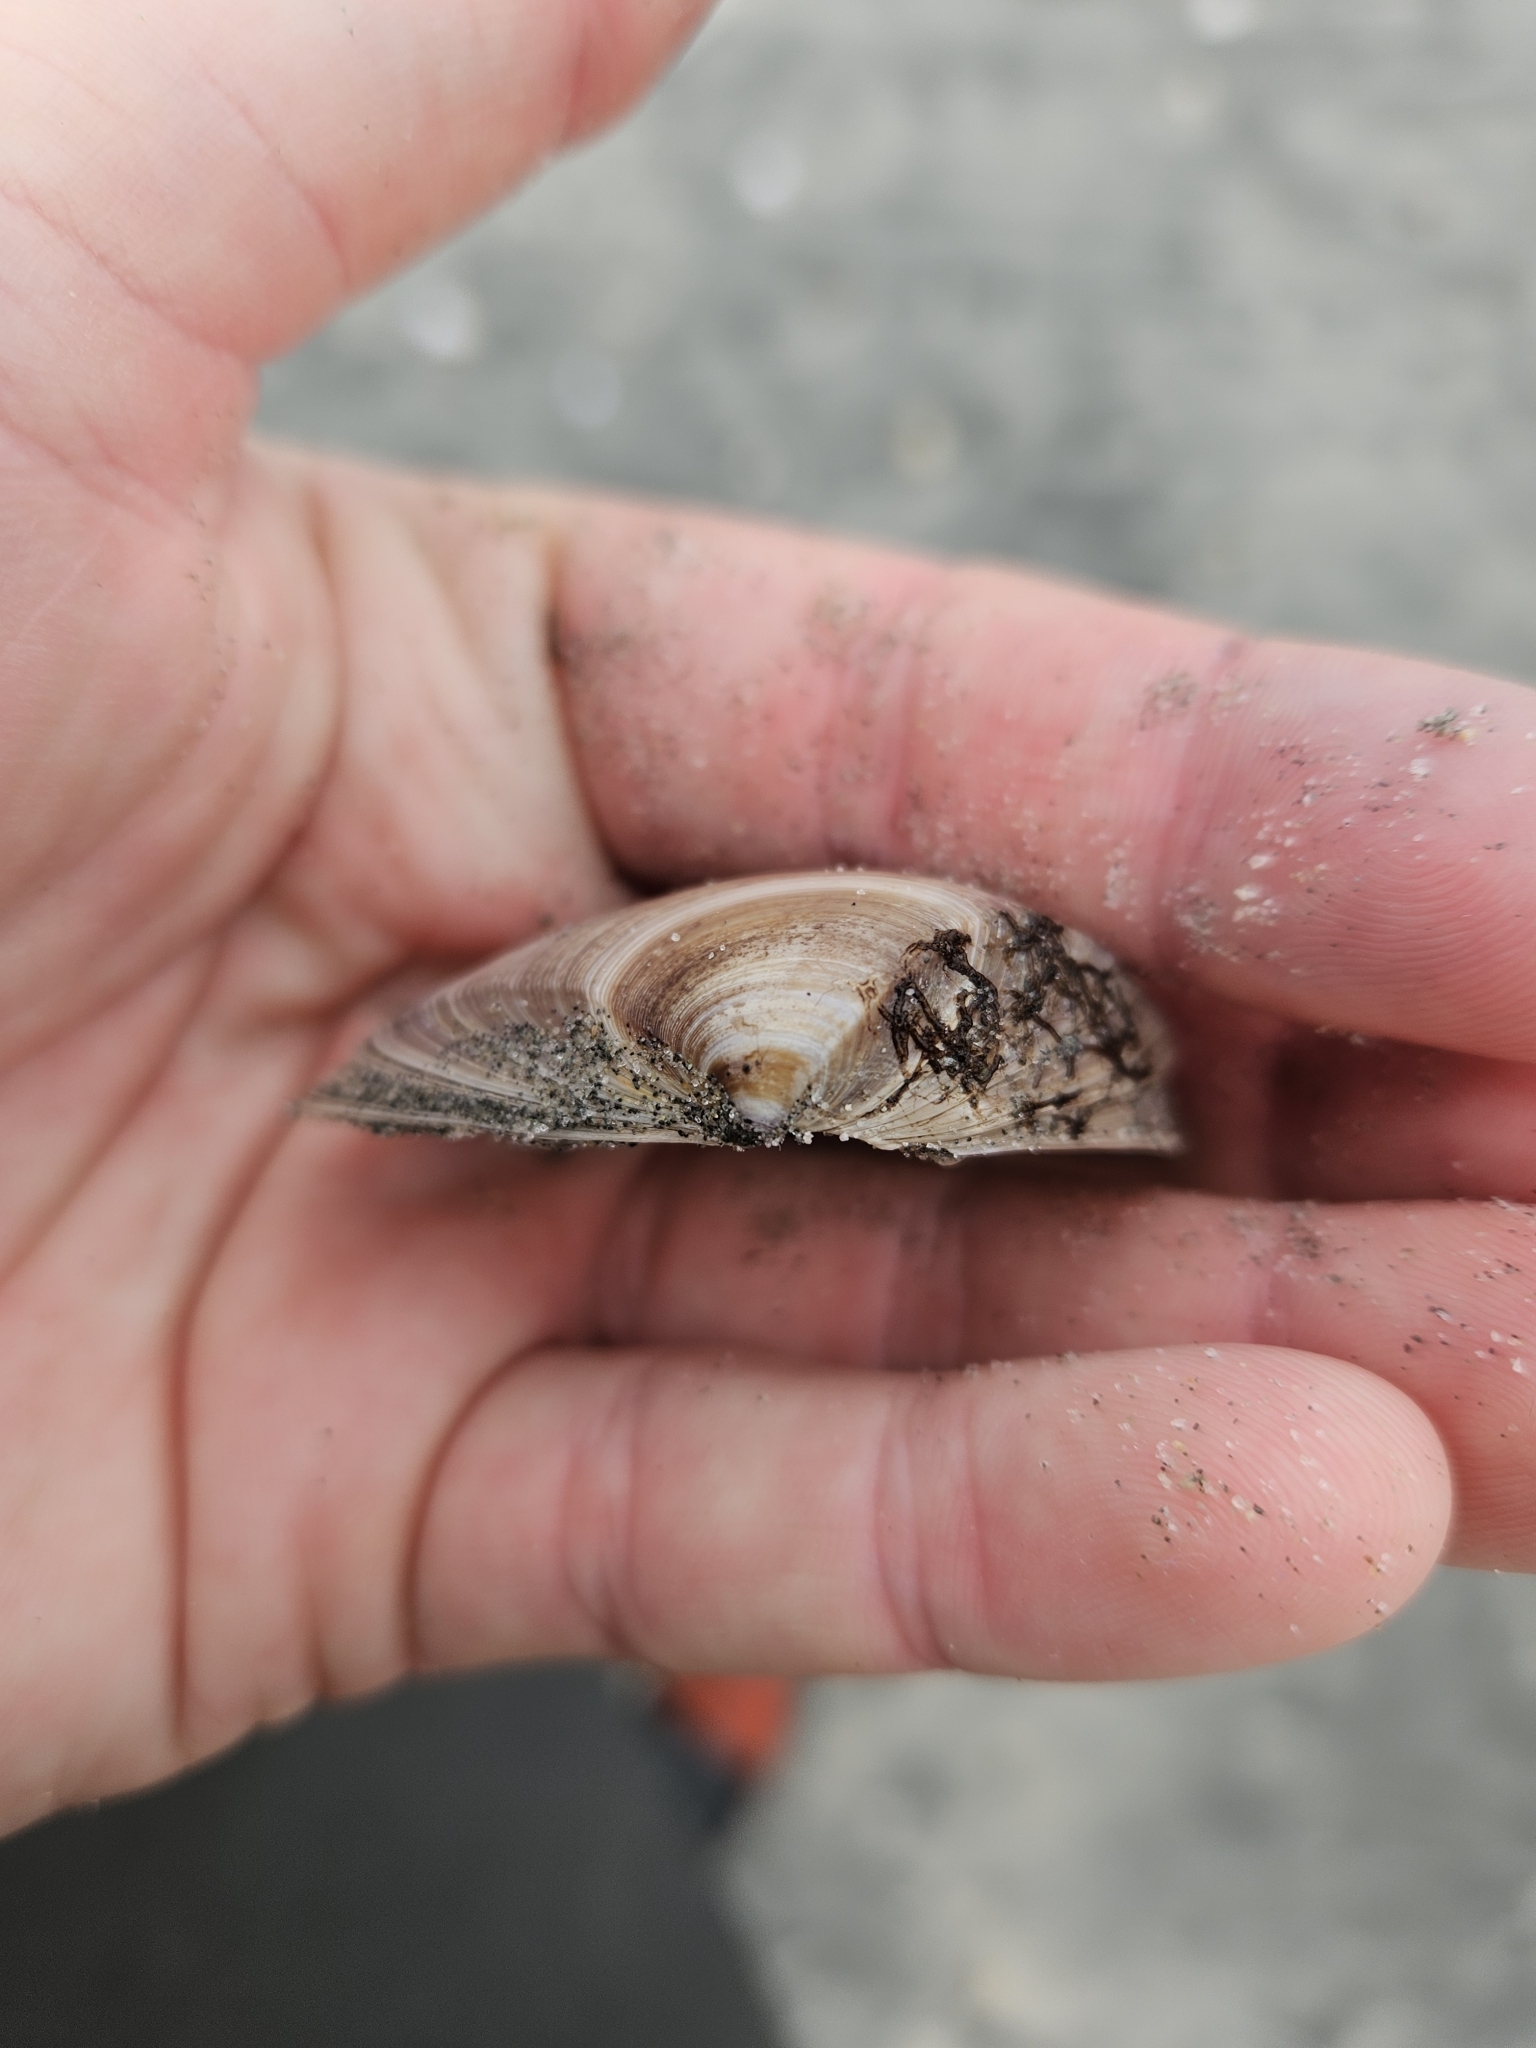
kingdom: Animalia
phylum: Mollusca
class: Bivalvia
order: Venerida
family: Mactridae
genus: Crassula
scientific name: Crassula aequilatera
